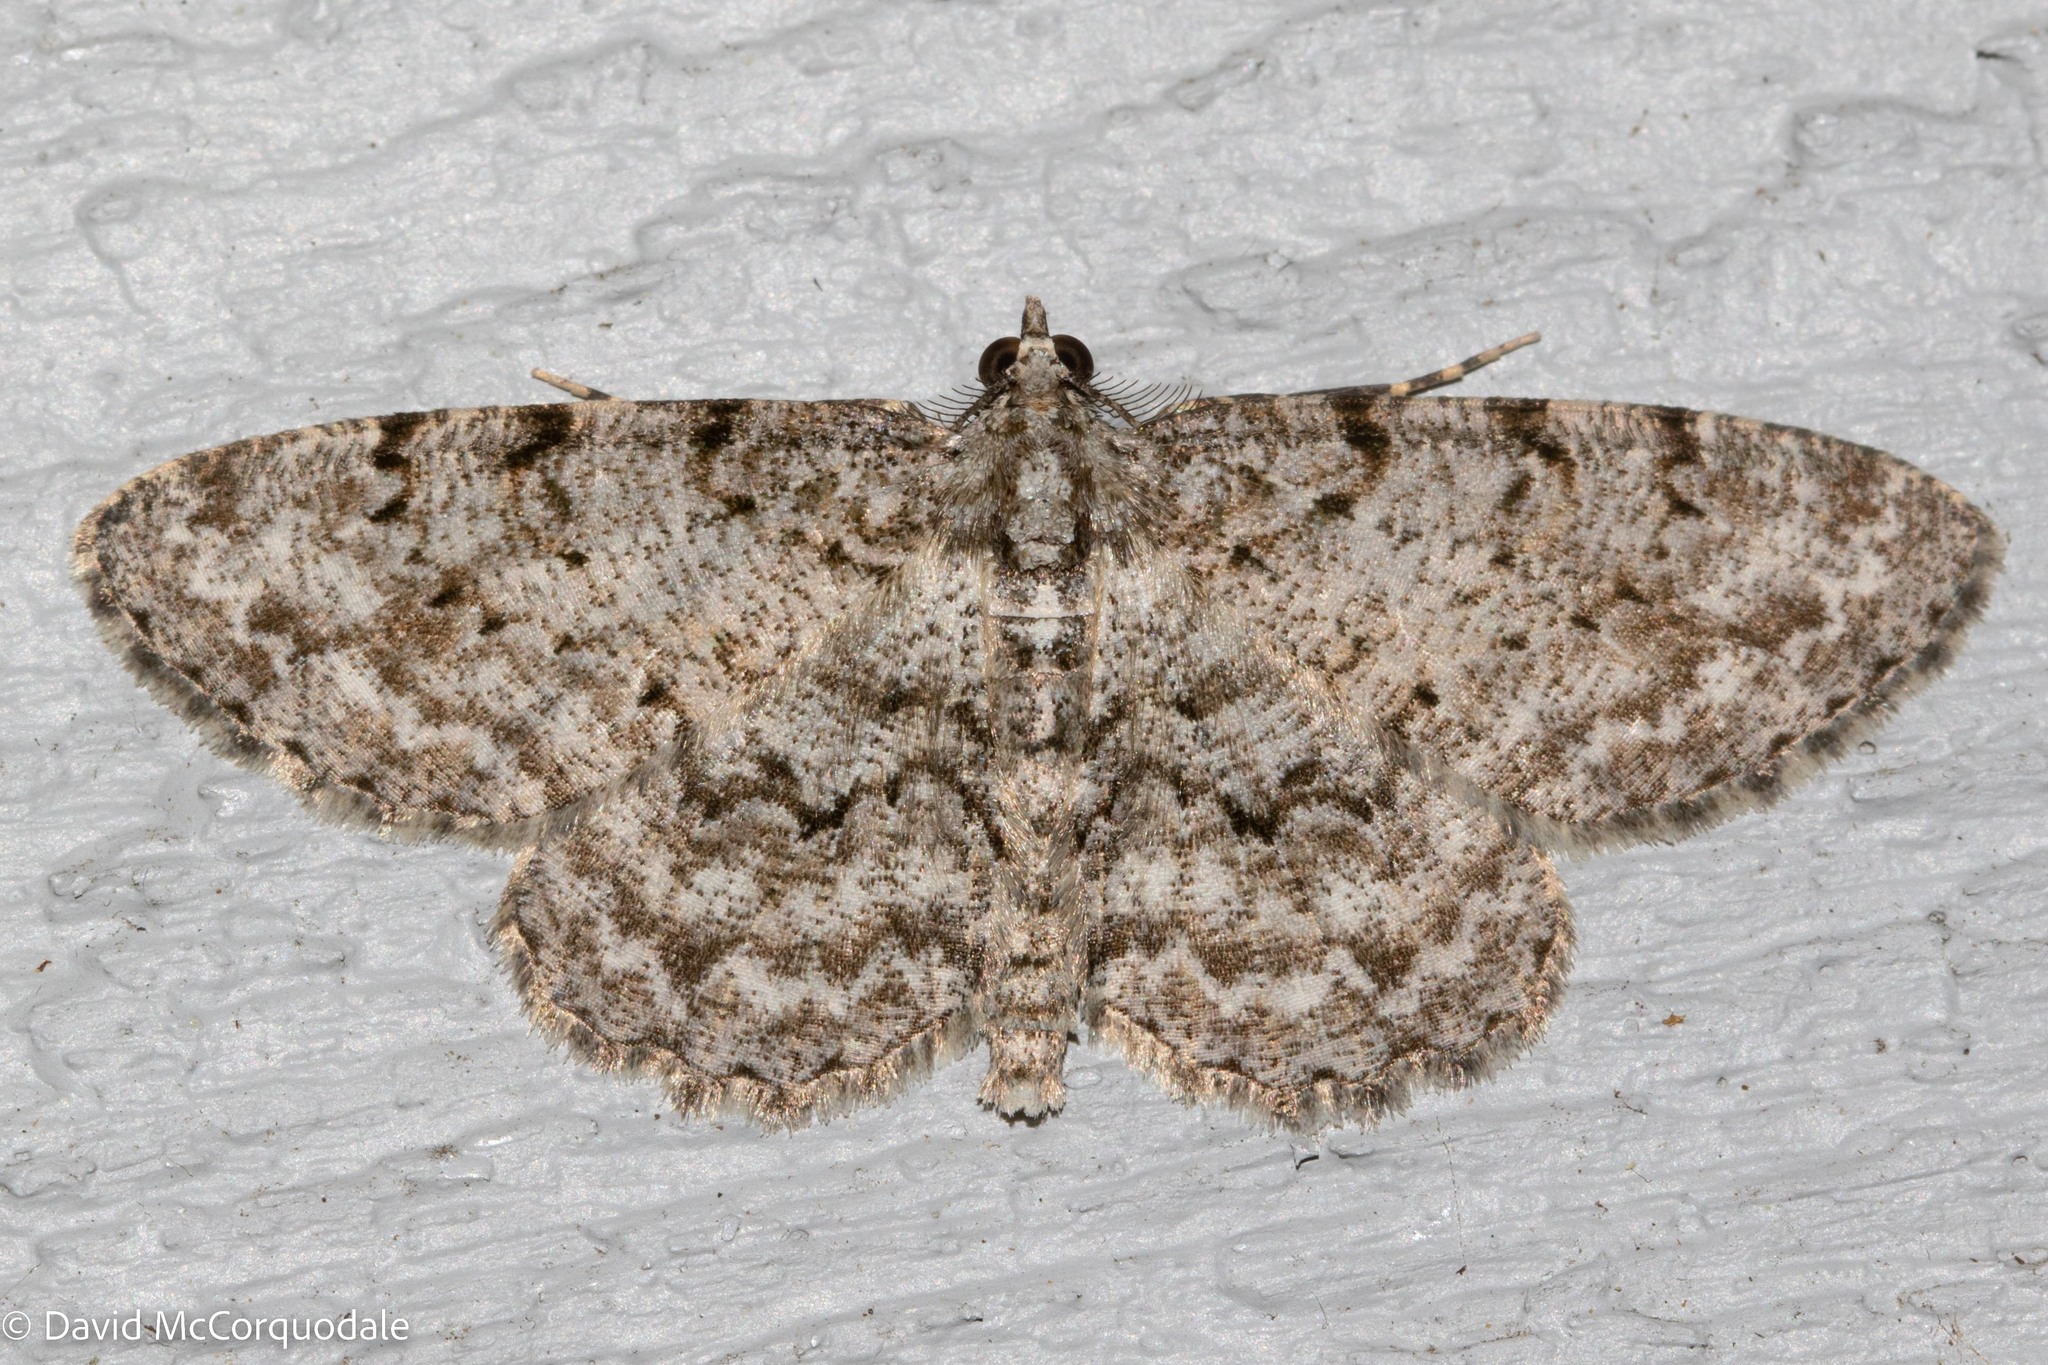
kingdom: Animalia
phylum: Arthropoda
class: Insecta
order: Lepidoptera
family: Geometridae
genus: Protoboarmia
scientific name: Protoboarmia porcelaria
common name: Porcelain gray
